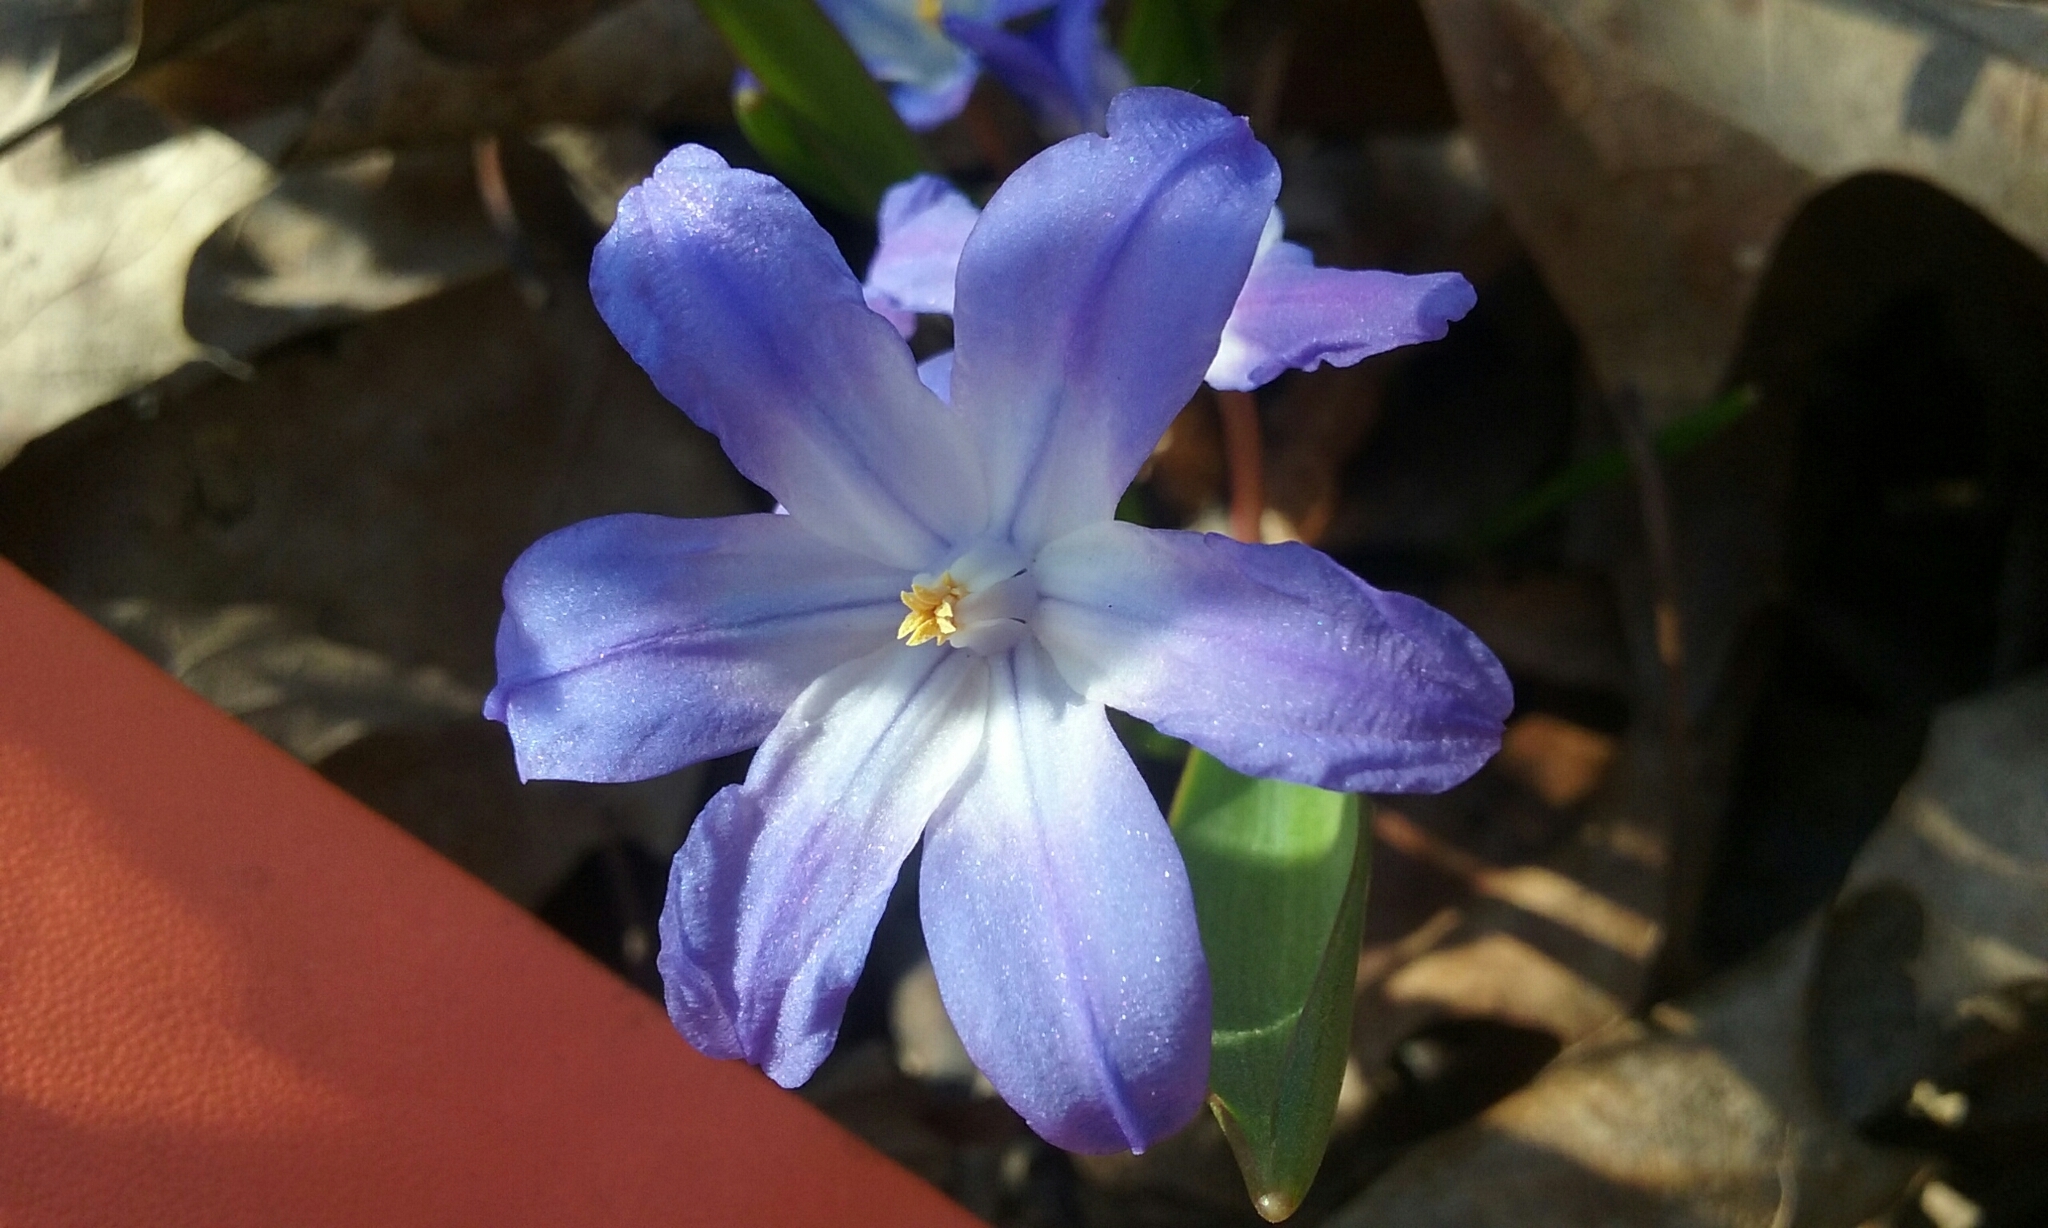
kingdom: Plantae
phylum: Tracheophyta
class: Liliopsida
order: Asparagales
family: Asparagaceae
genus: Scilla
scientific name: Scilla luciliae
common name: Boissier's glory-of-the-snow
